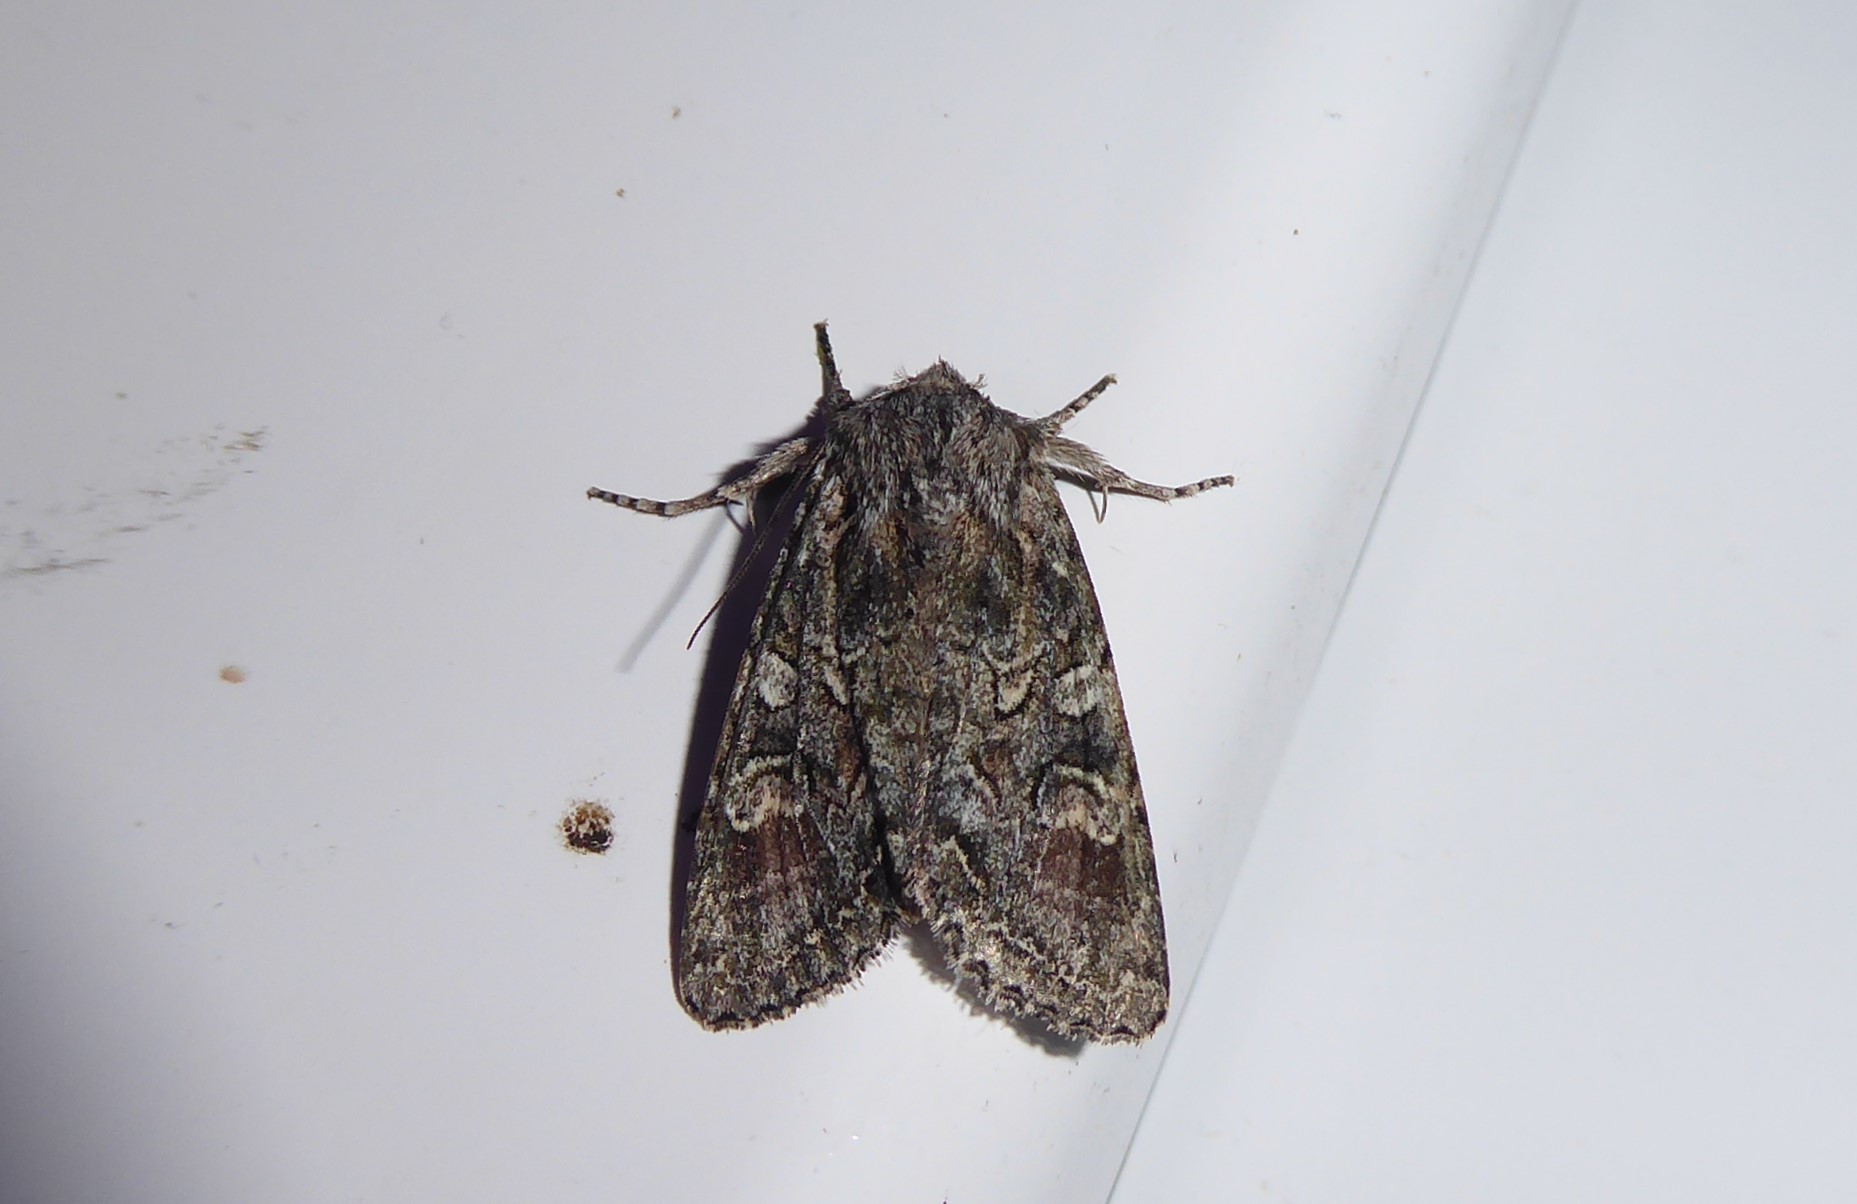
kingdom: Animalia
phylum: Arthropoda
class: Insecta
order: Lepidoptera
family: Noctuidae
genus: Ichneutica
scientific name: Ichneutica mutans
